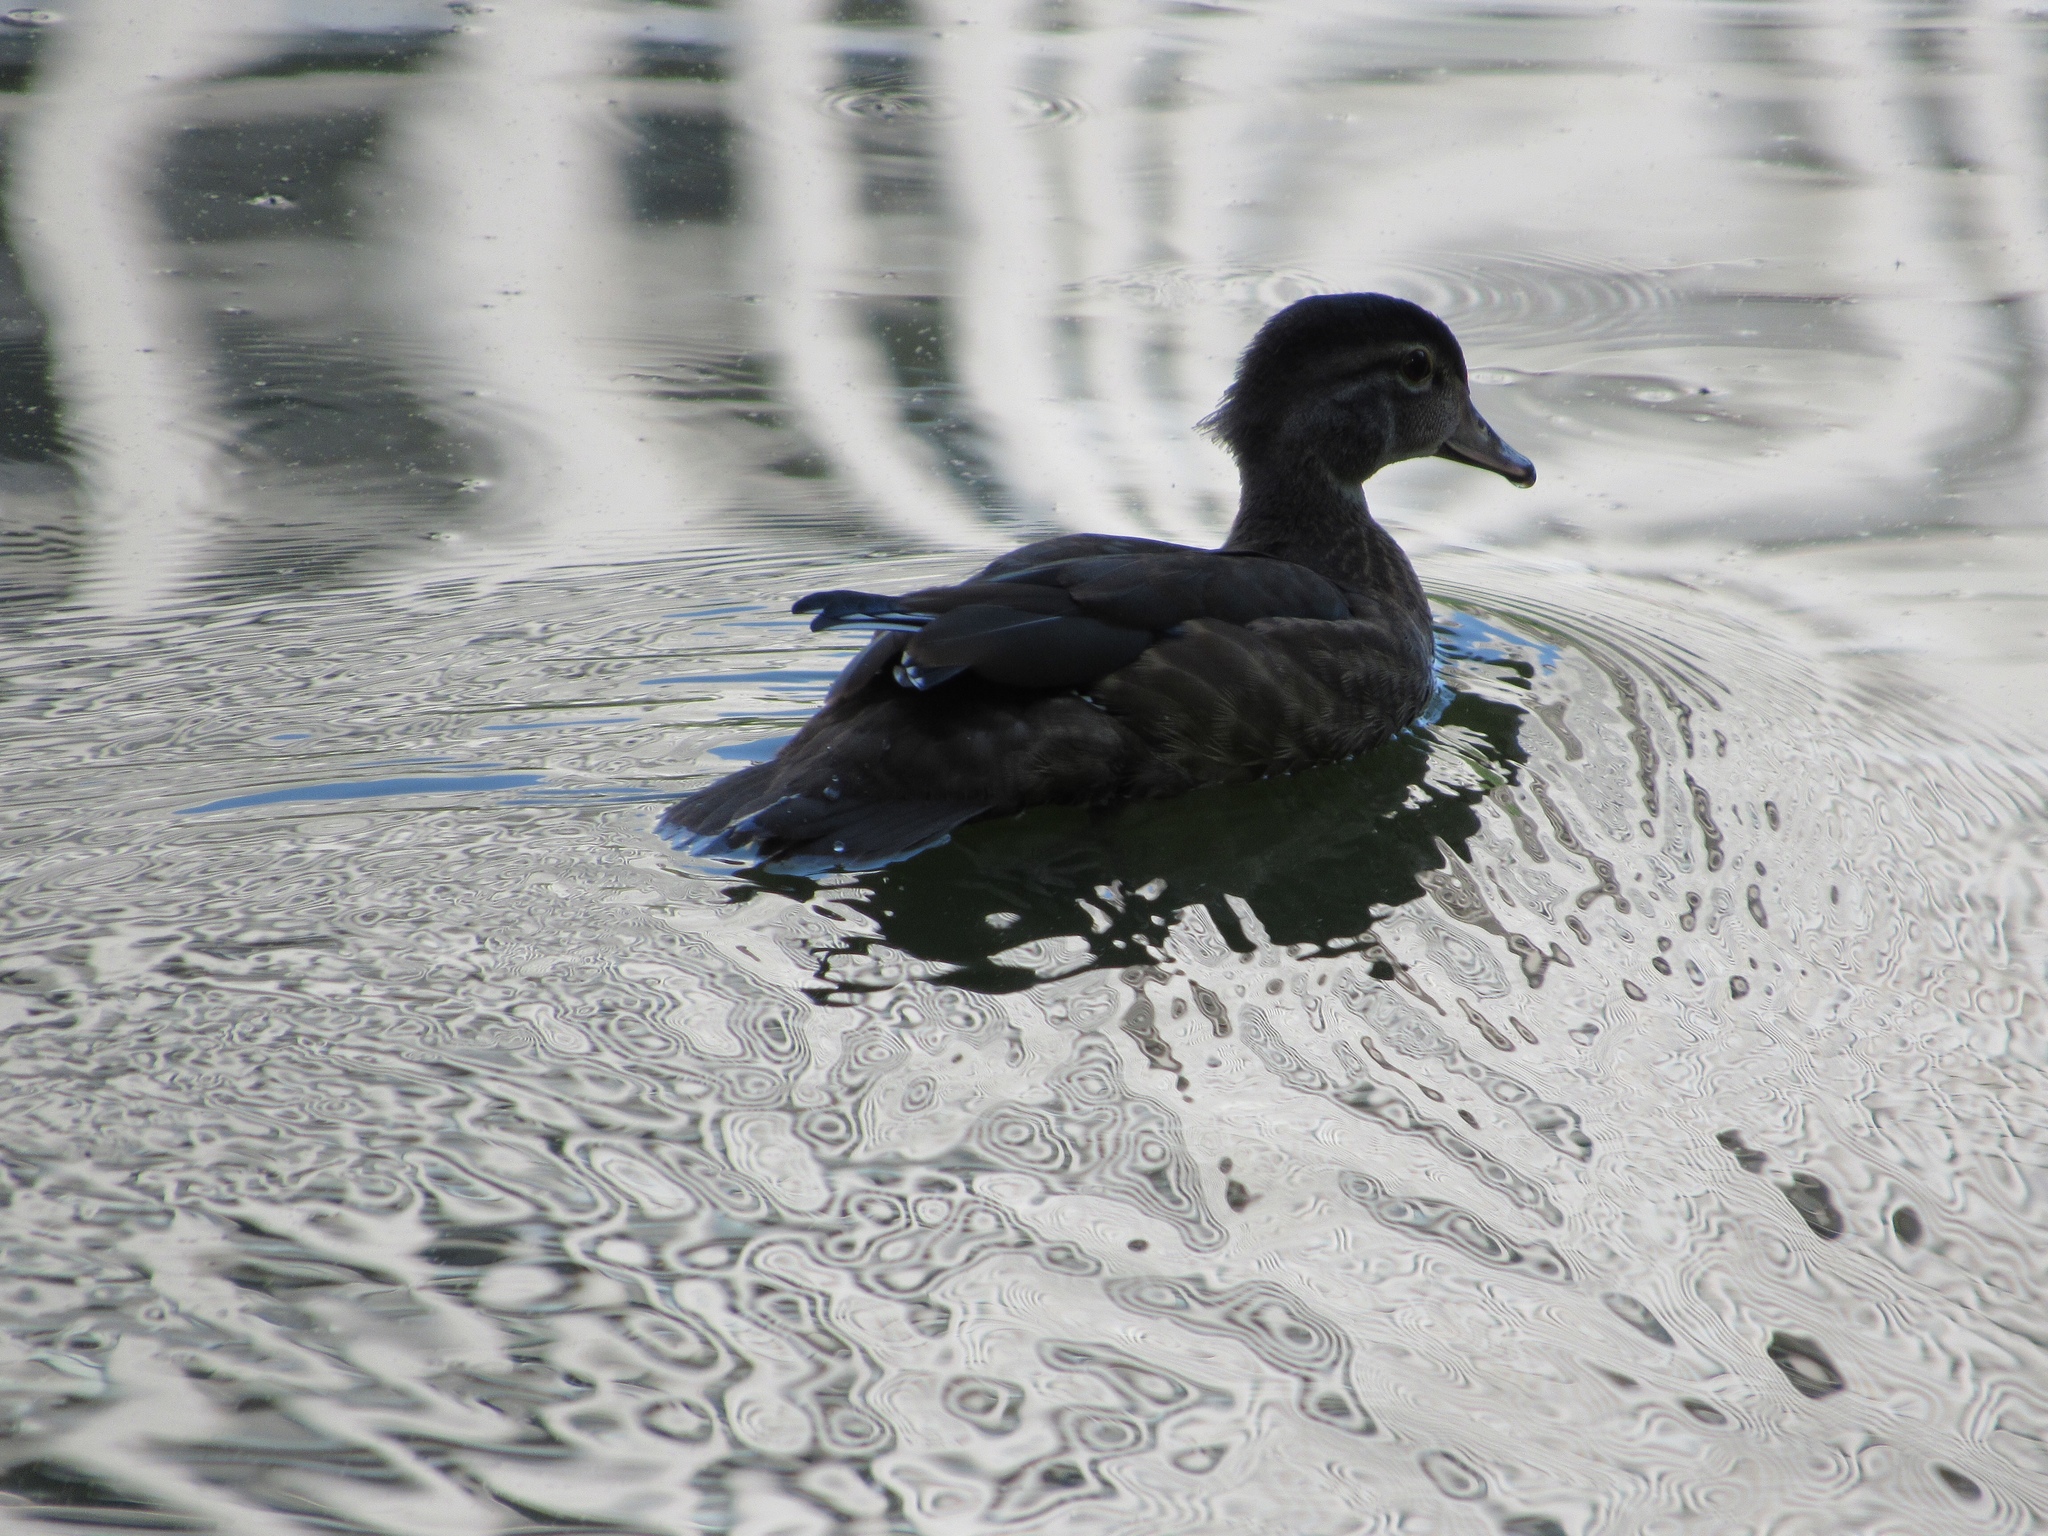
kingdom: Animalia
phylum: Chordata
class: Aves
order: Anseriformes
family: Anatidae
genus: Aix
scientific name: Aix sponsa
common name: Wood duck
